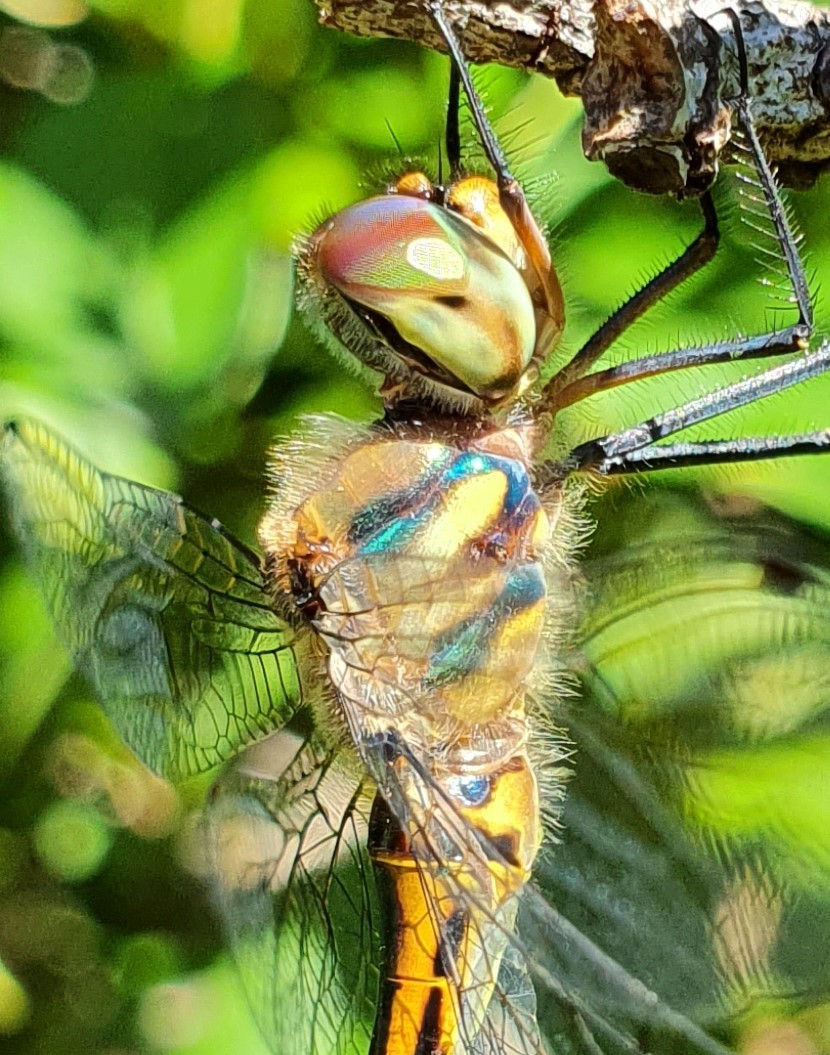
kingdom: Animalia
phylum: Arthropoda
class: Insecta
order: Odonata
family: Corduliidae
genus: Hemicordulia
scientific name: Hemicordulia australiae
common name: Sentry dragonfly
